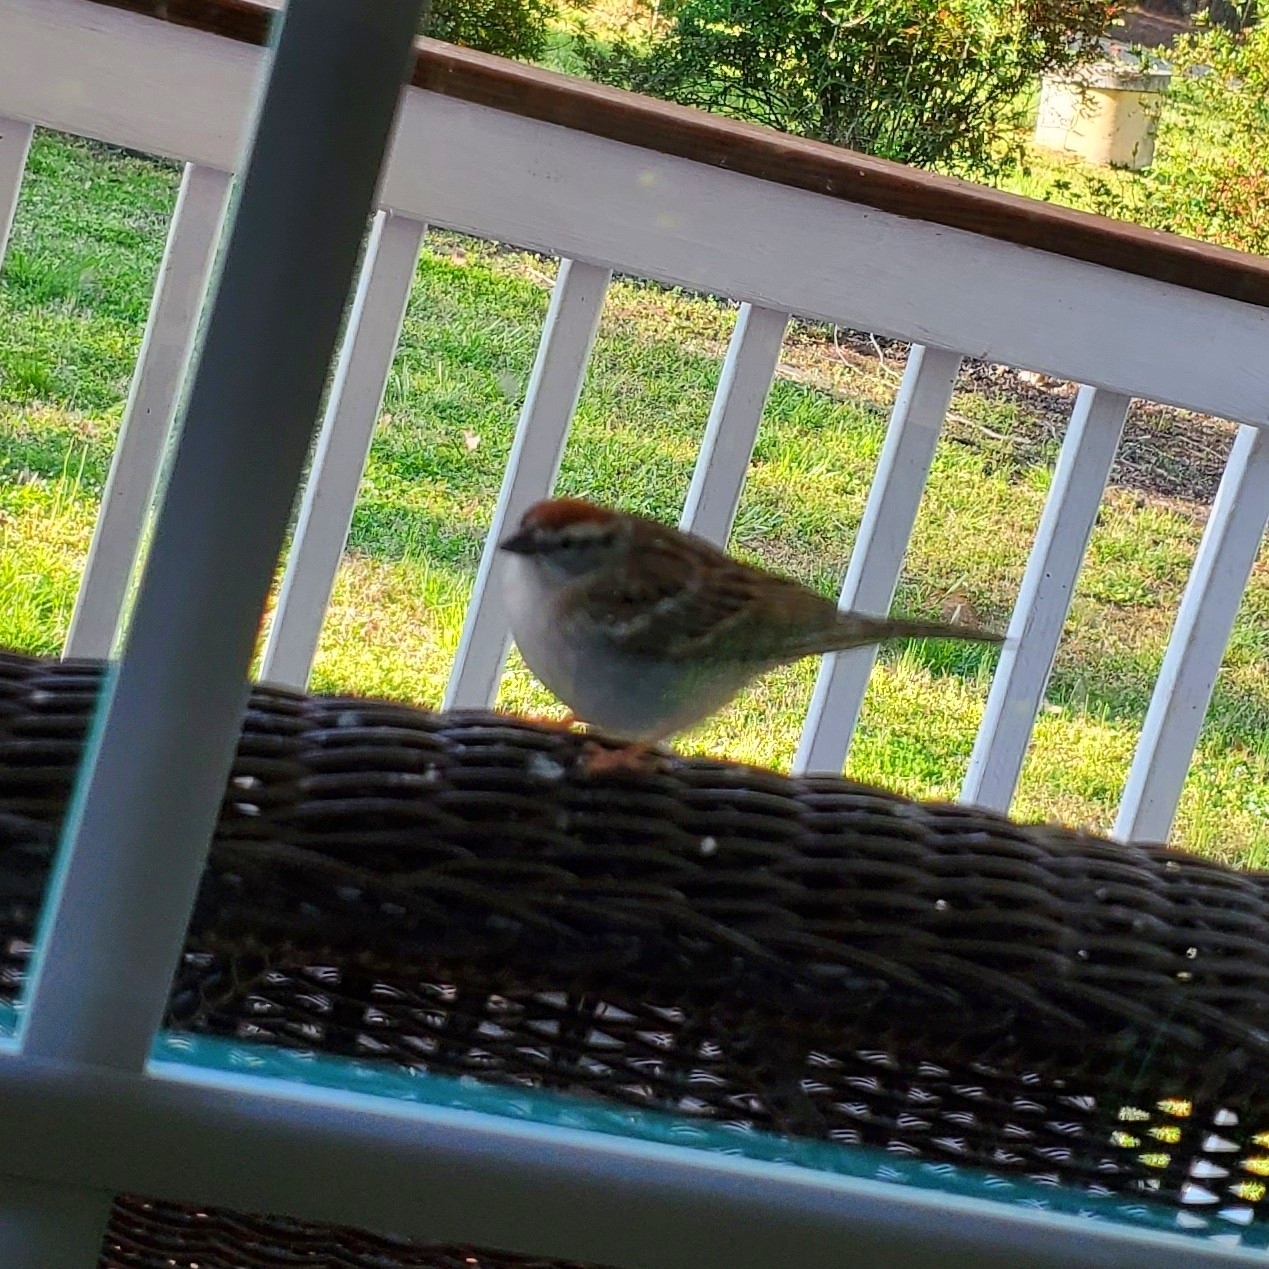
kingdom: Animalia
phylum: Chordata
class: Aves
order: Passeriformes
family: Passerellidae
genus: Spizella
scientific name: Spizella passerina
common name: Chipping sparrow
